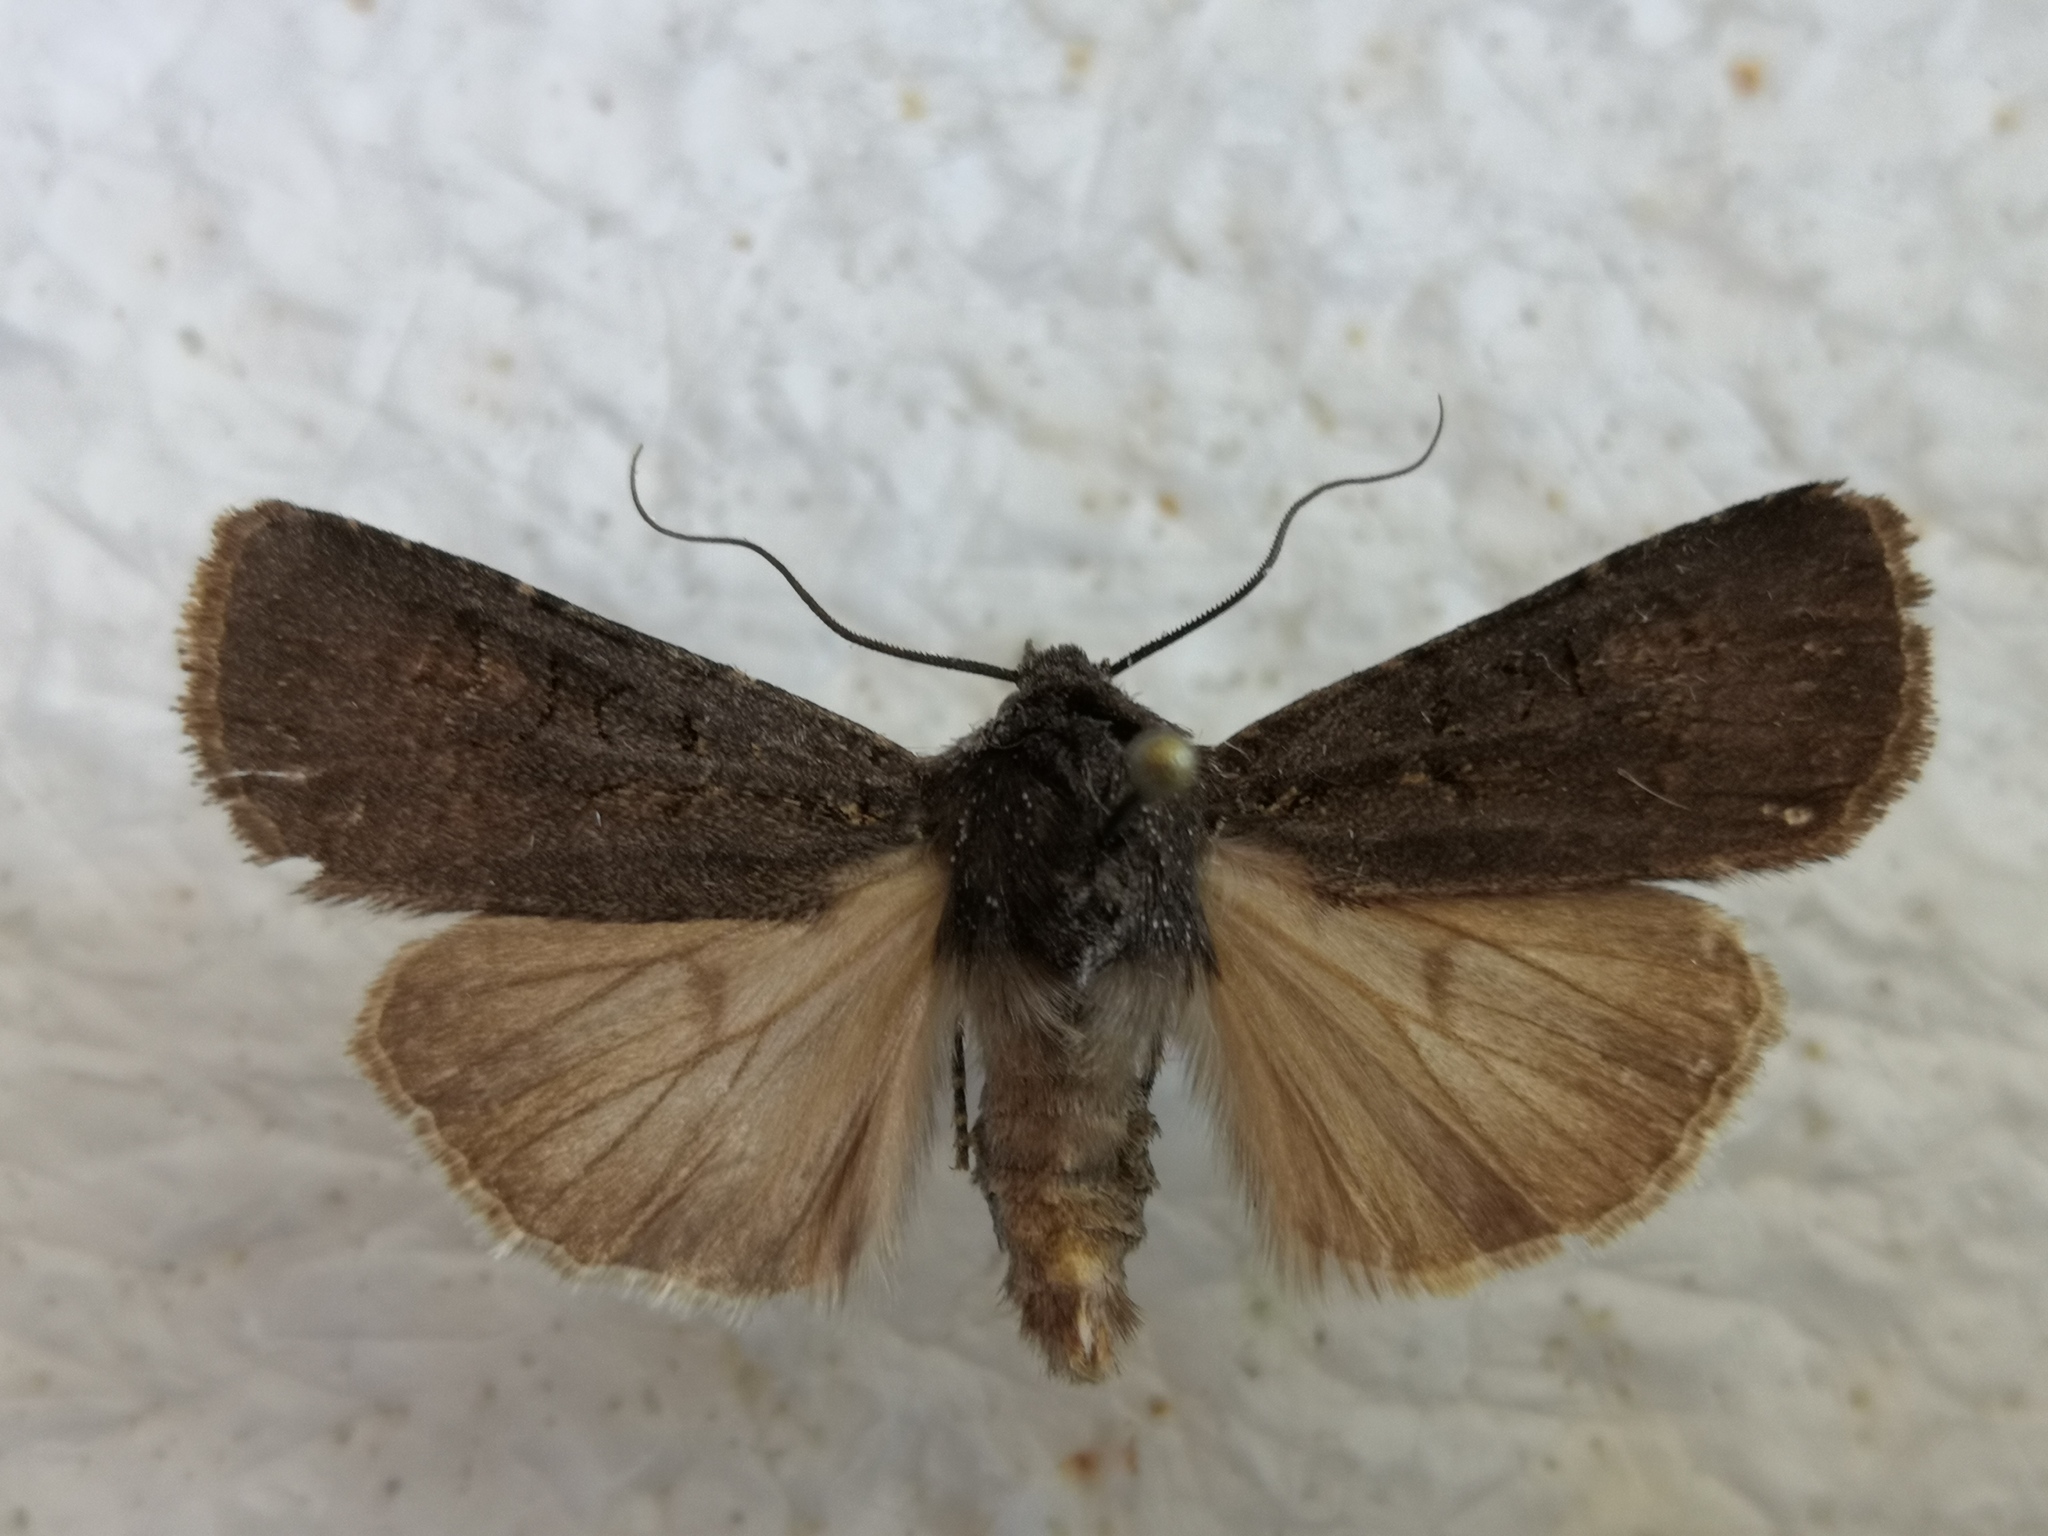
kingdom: Animalia
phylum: Arthropoda
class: Insecta
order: Lepidoptera
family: Noctuidae
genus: Euxoa
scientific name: Euxoa nigricans
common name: Garden dart
